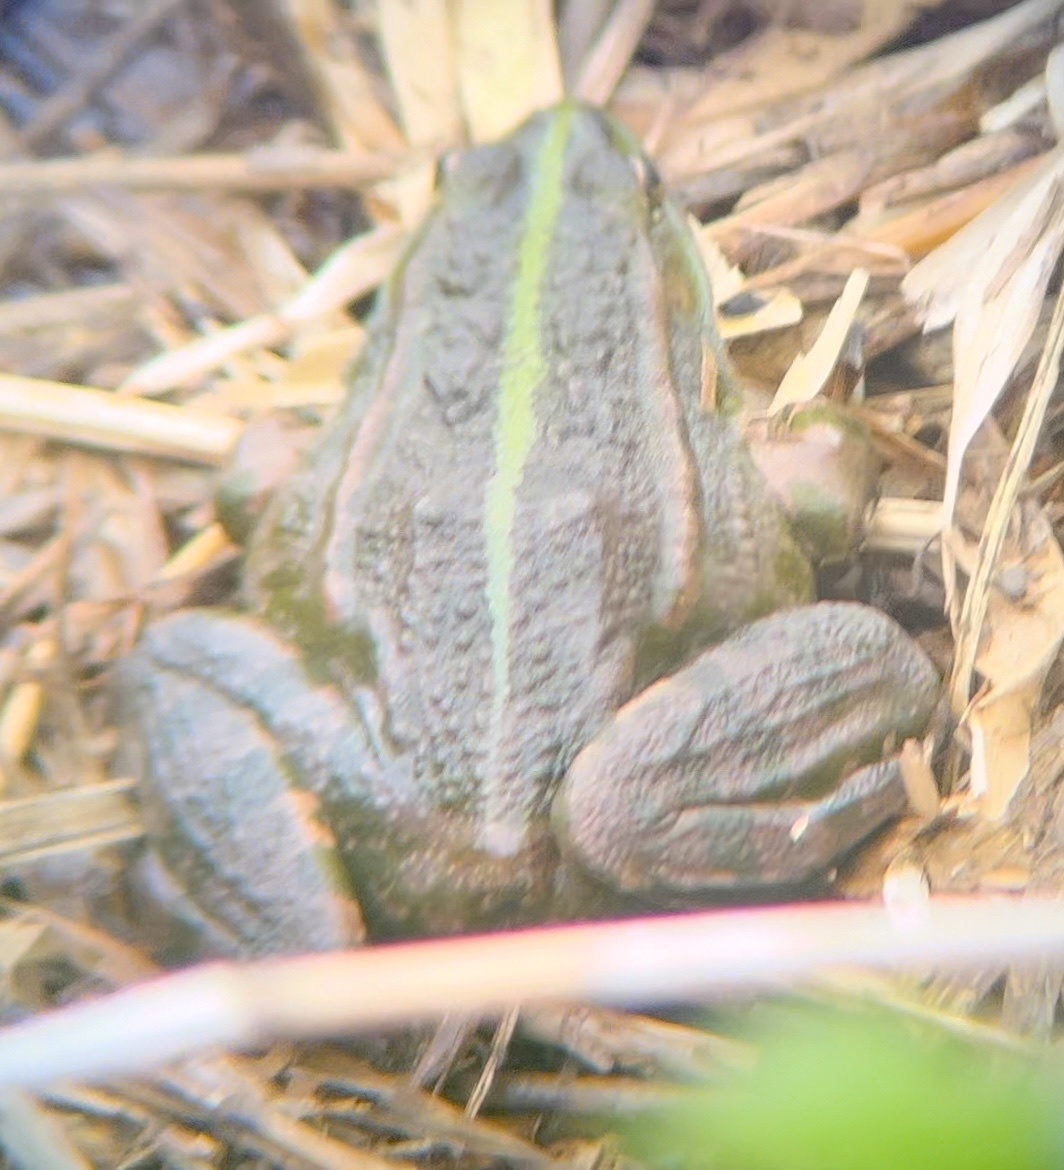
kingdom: Animalia
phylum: Chordata
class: Amphibia
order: Anura
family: Ranidae
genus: Pelophylax
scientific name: Pelophylax ridibundus
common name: Marsh frog
